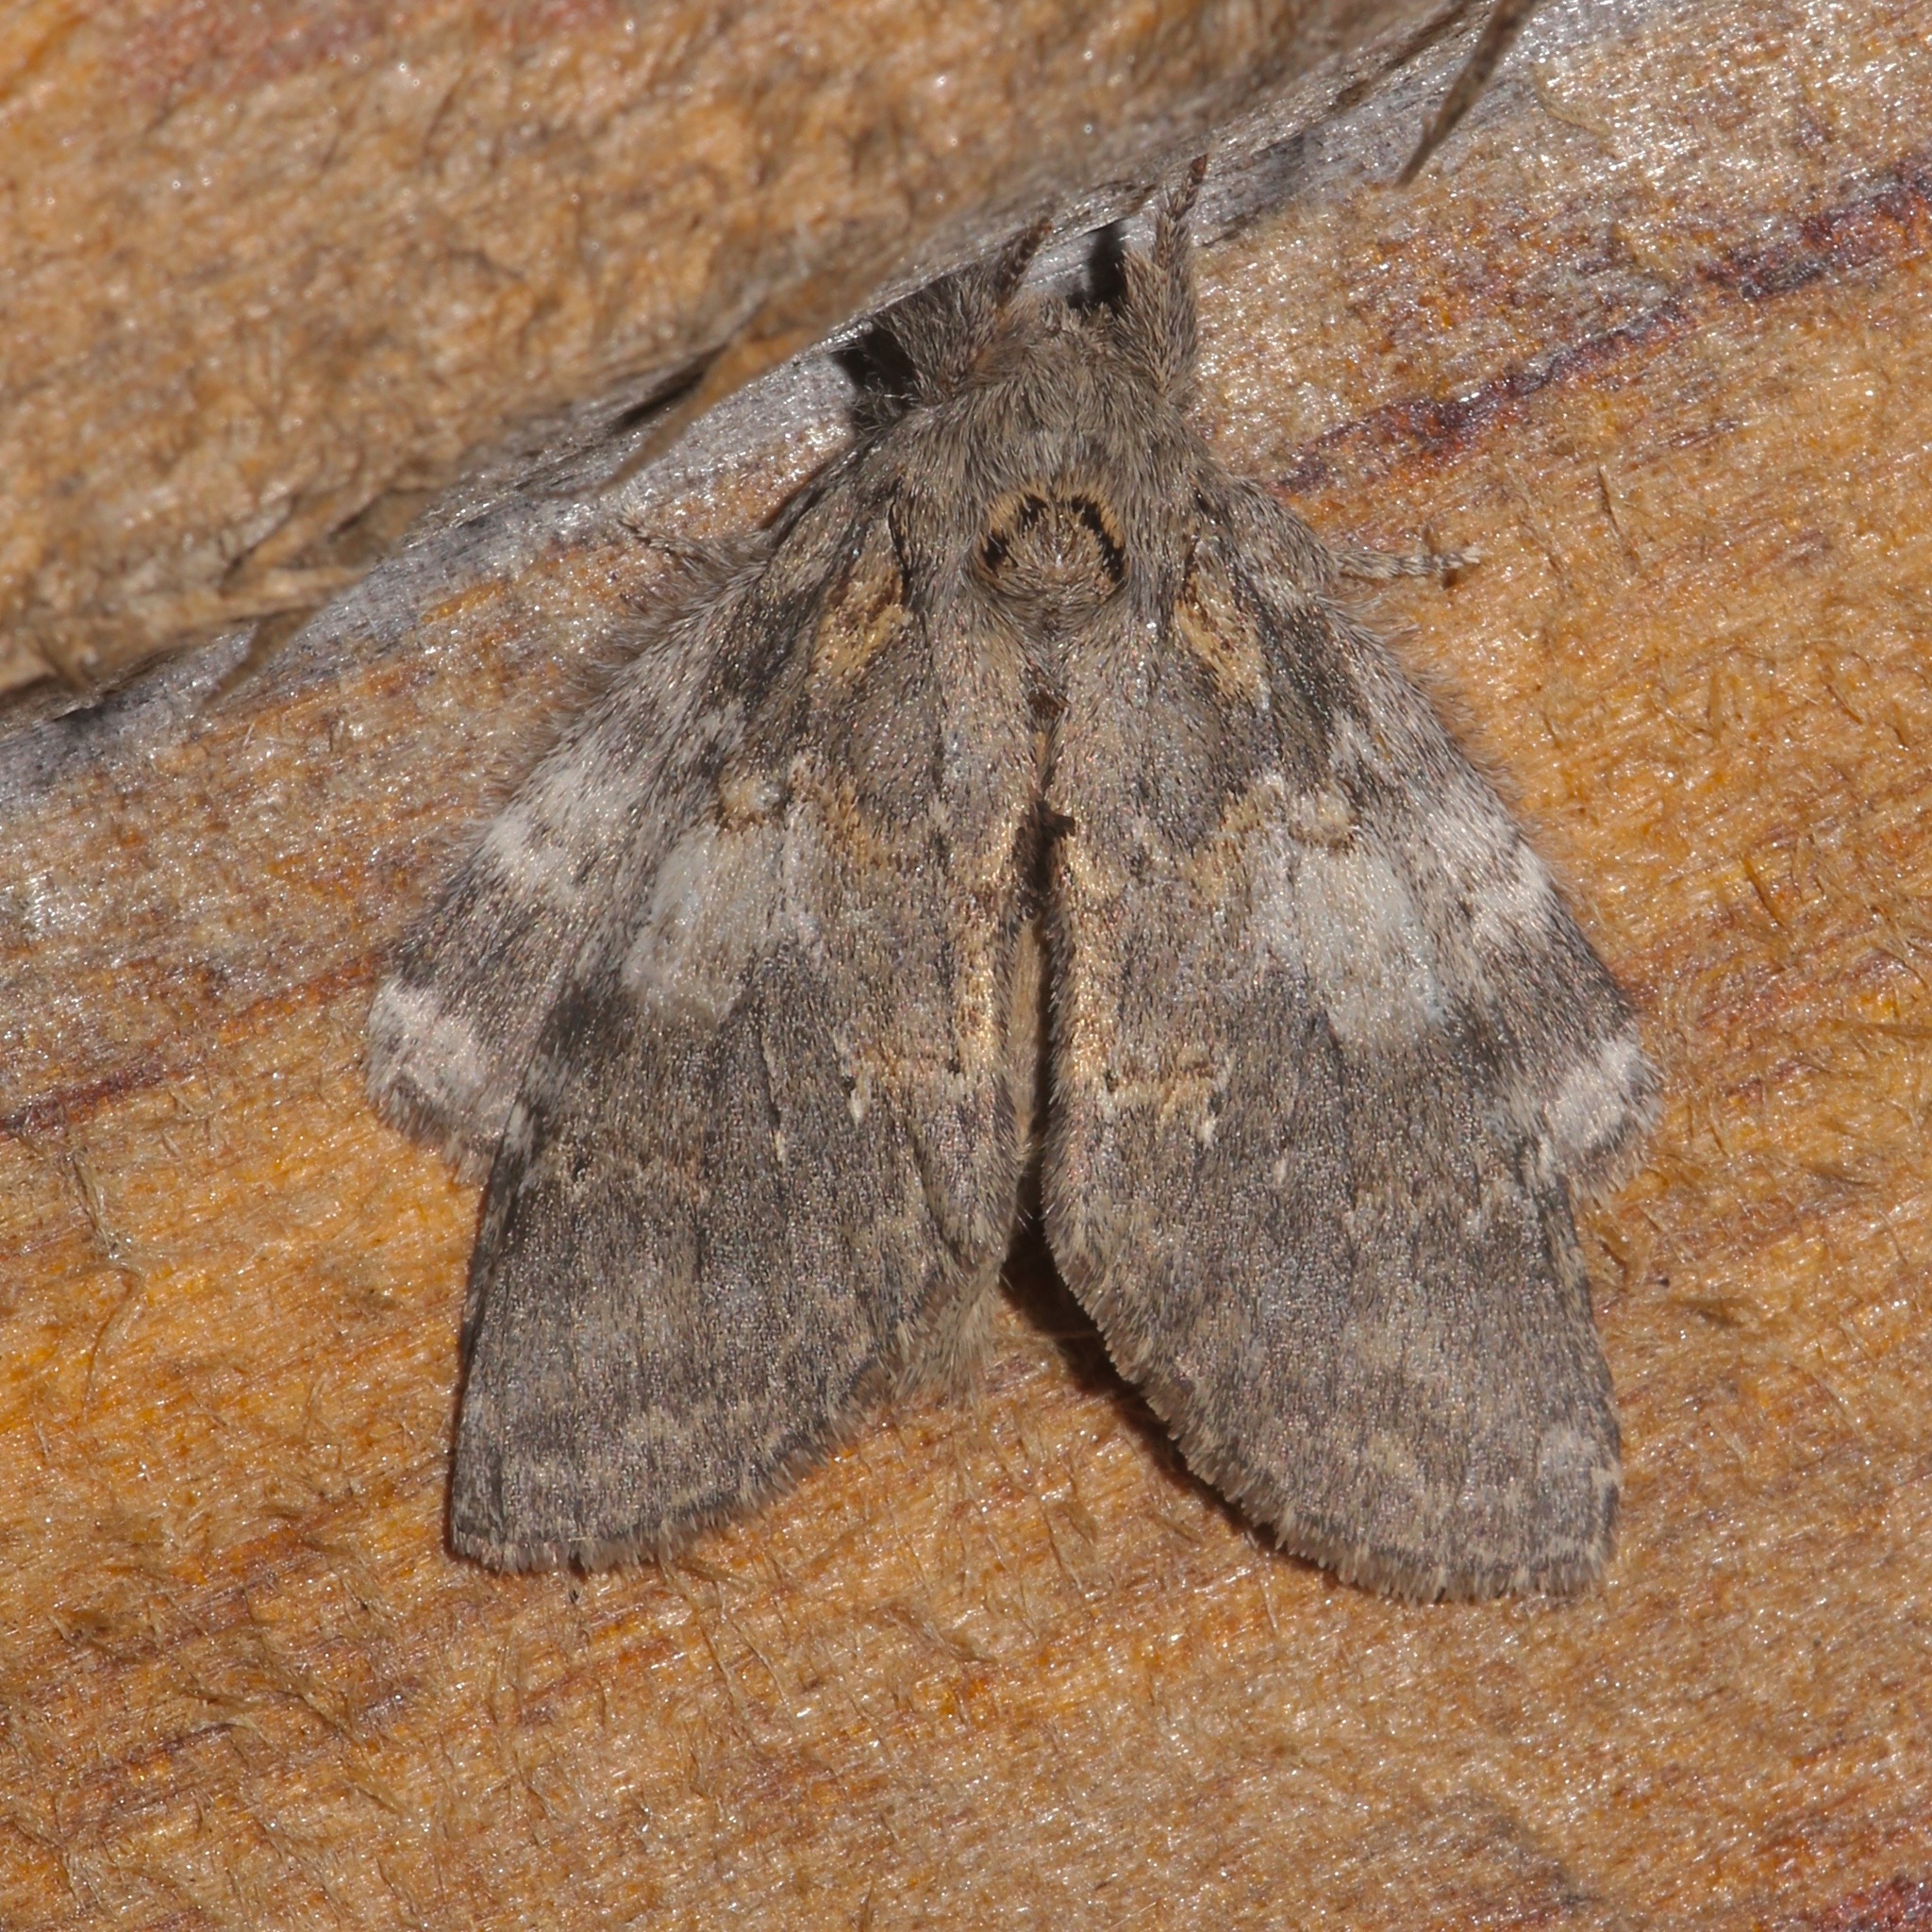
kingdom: Animalia
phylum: Arthropoda
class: Insecta
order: Lepidoptera
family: Notodontidae
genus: Peridea
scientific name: Peridea angulosa
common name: Angulose prominent
